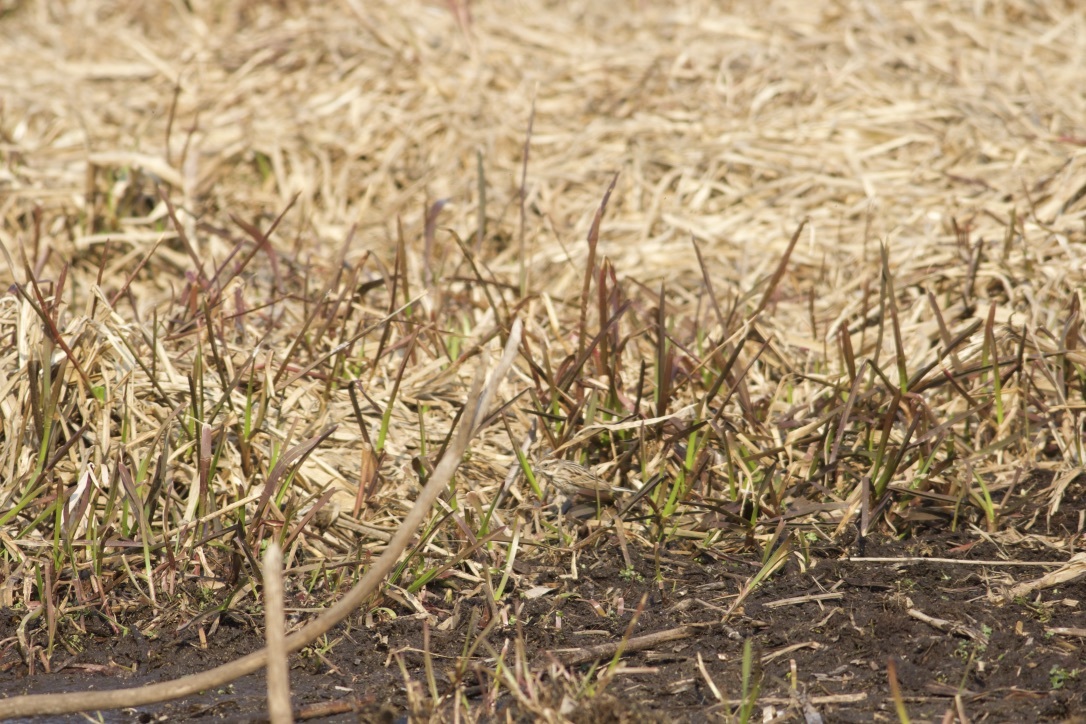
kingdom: Animalia
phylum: Chordata
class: Aves
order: Passeriformes
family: Emberizidae
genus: Emberiza
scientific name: Emberiza schoeniclus
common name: Reed bunting
